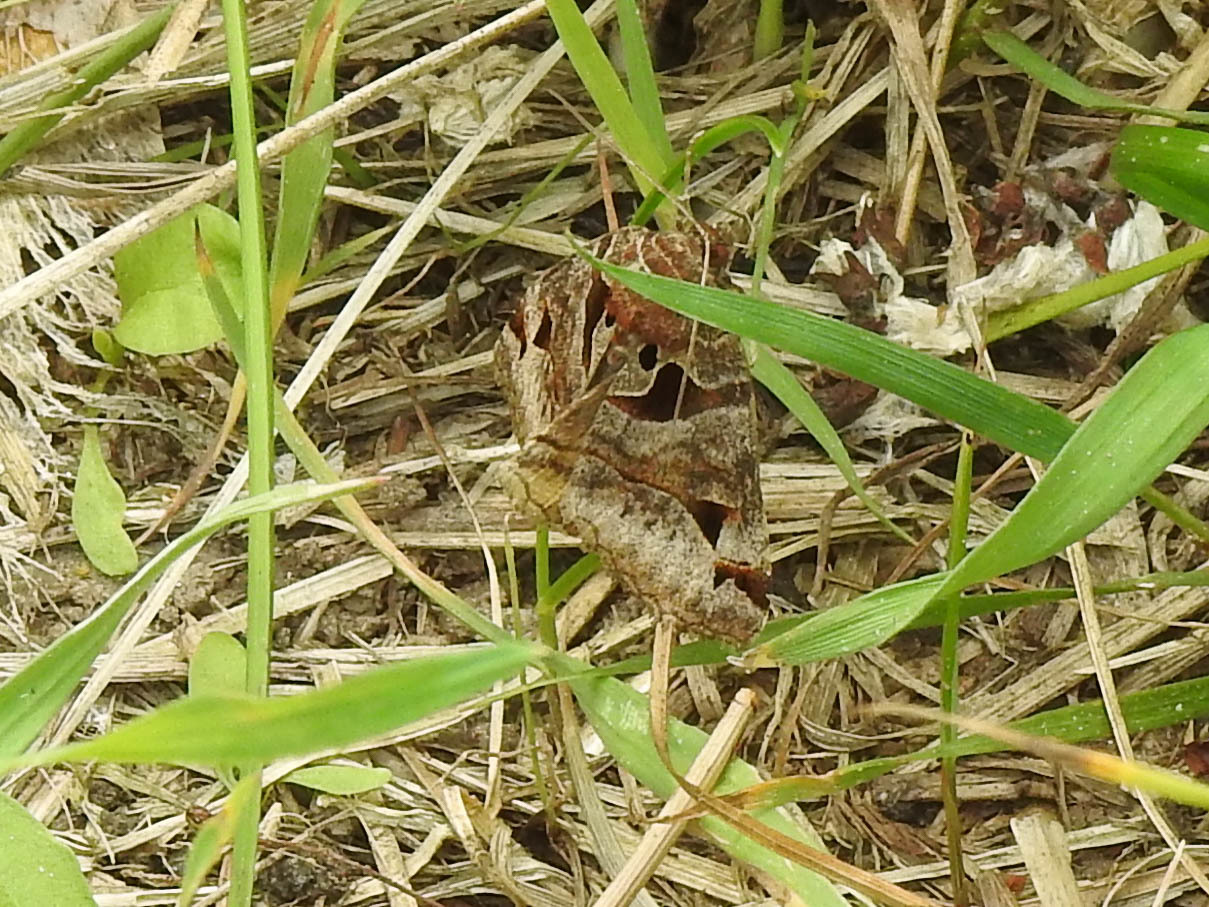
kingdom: Animalia
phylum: Arthropoda
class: Insecta
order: Lepidoptera
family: Erebidae
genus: Euclidia
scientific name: Euclidia cuspidea
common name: Toothed somberwing
